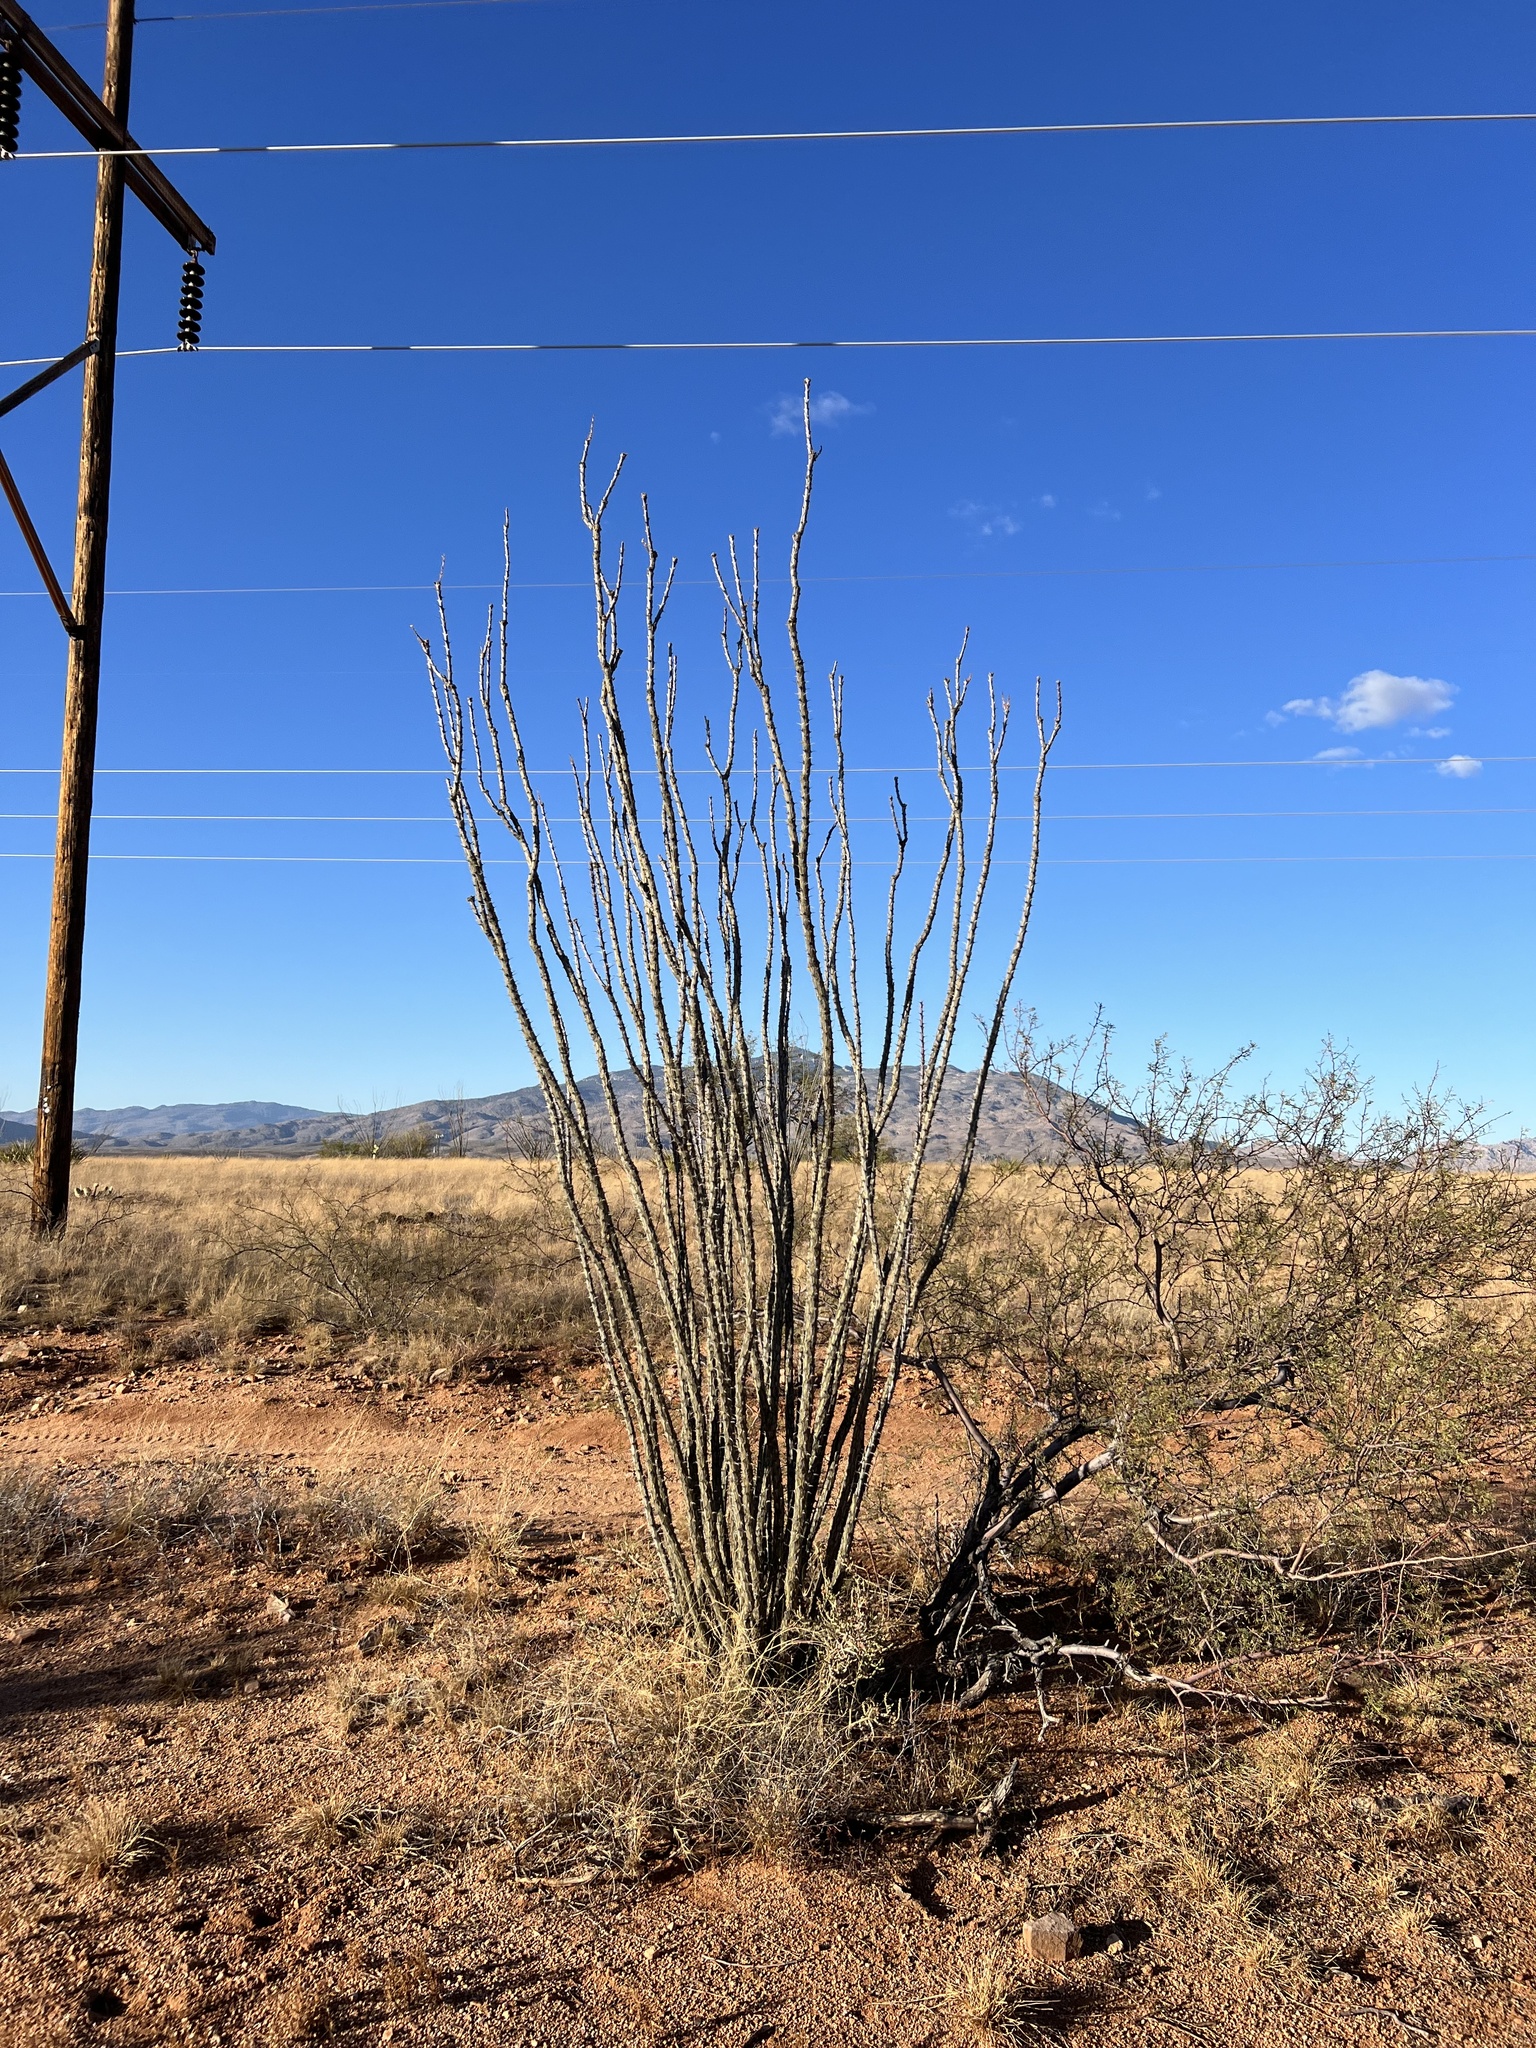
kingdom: Plantae
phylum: Tracheophyta
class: Magnoliopsida
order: Ericales
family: Fouquieriaceae
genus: Fouquieria
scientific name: Fouquieria splendens
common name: Vine-cactus
